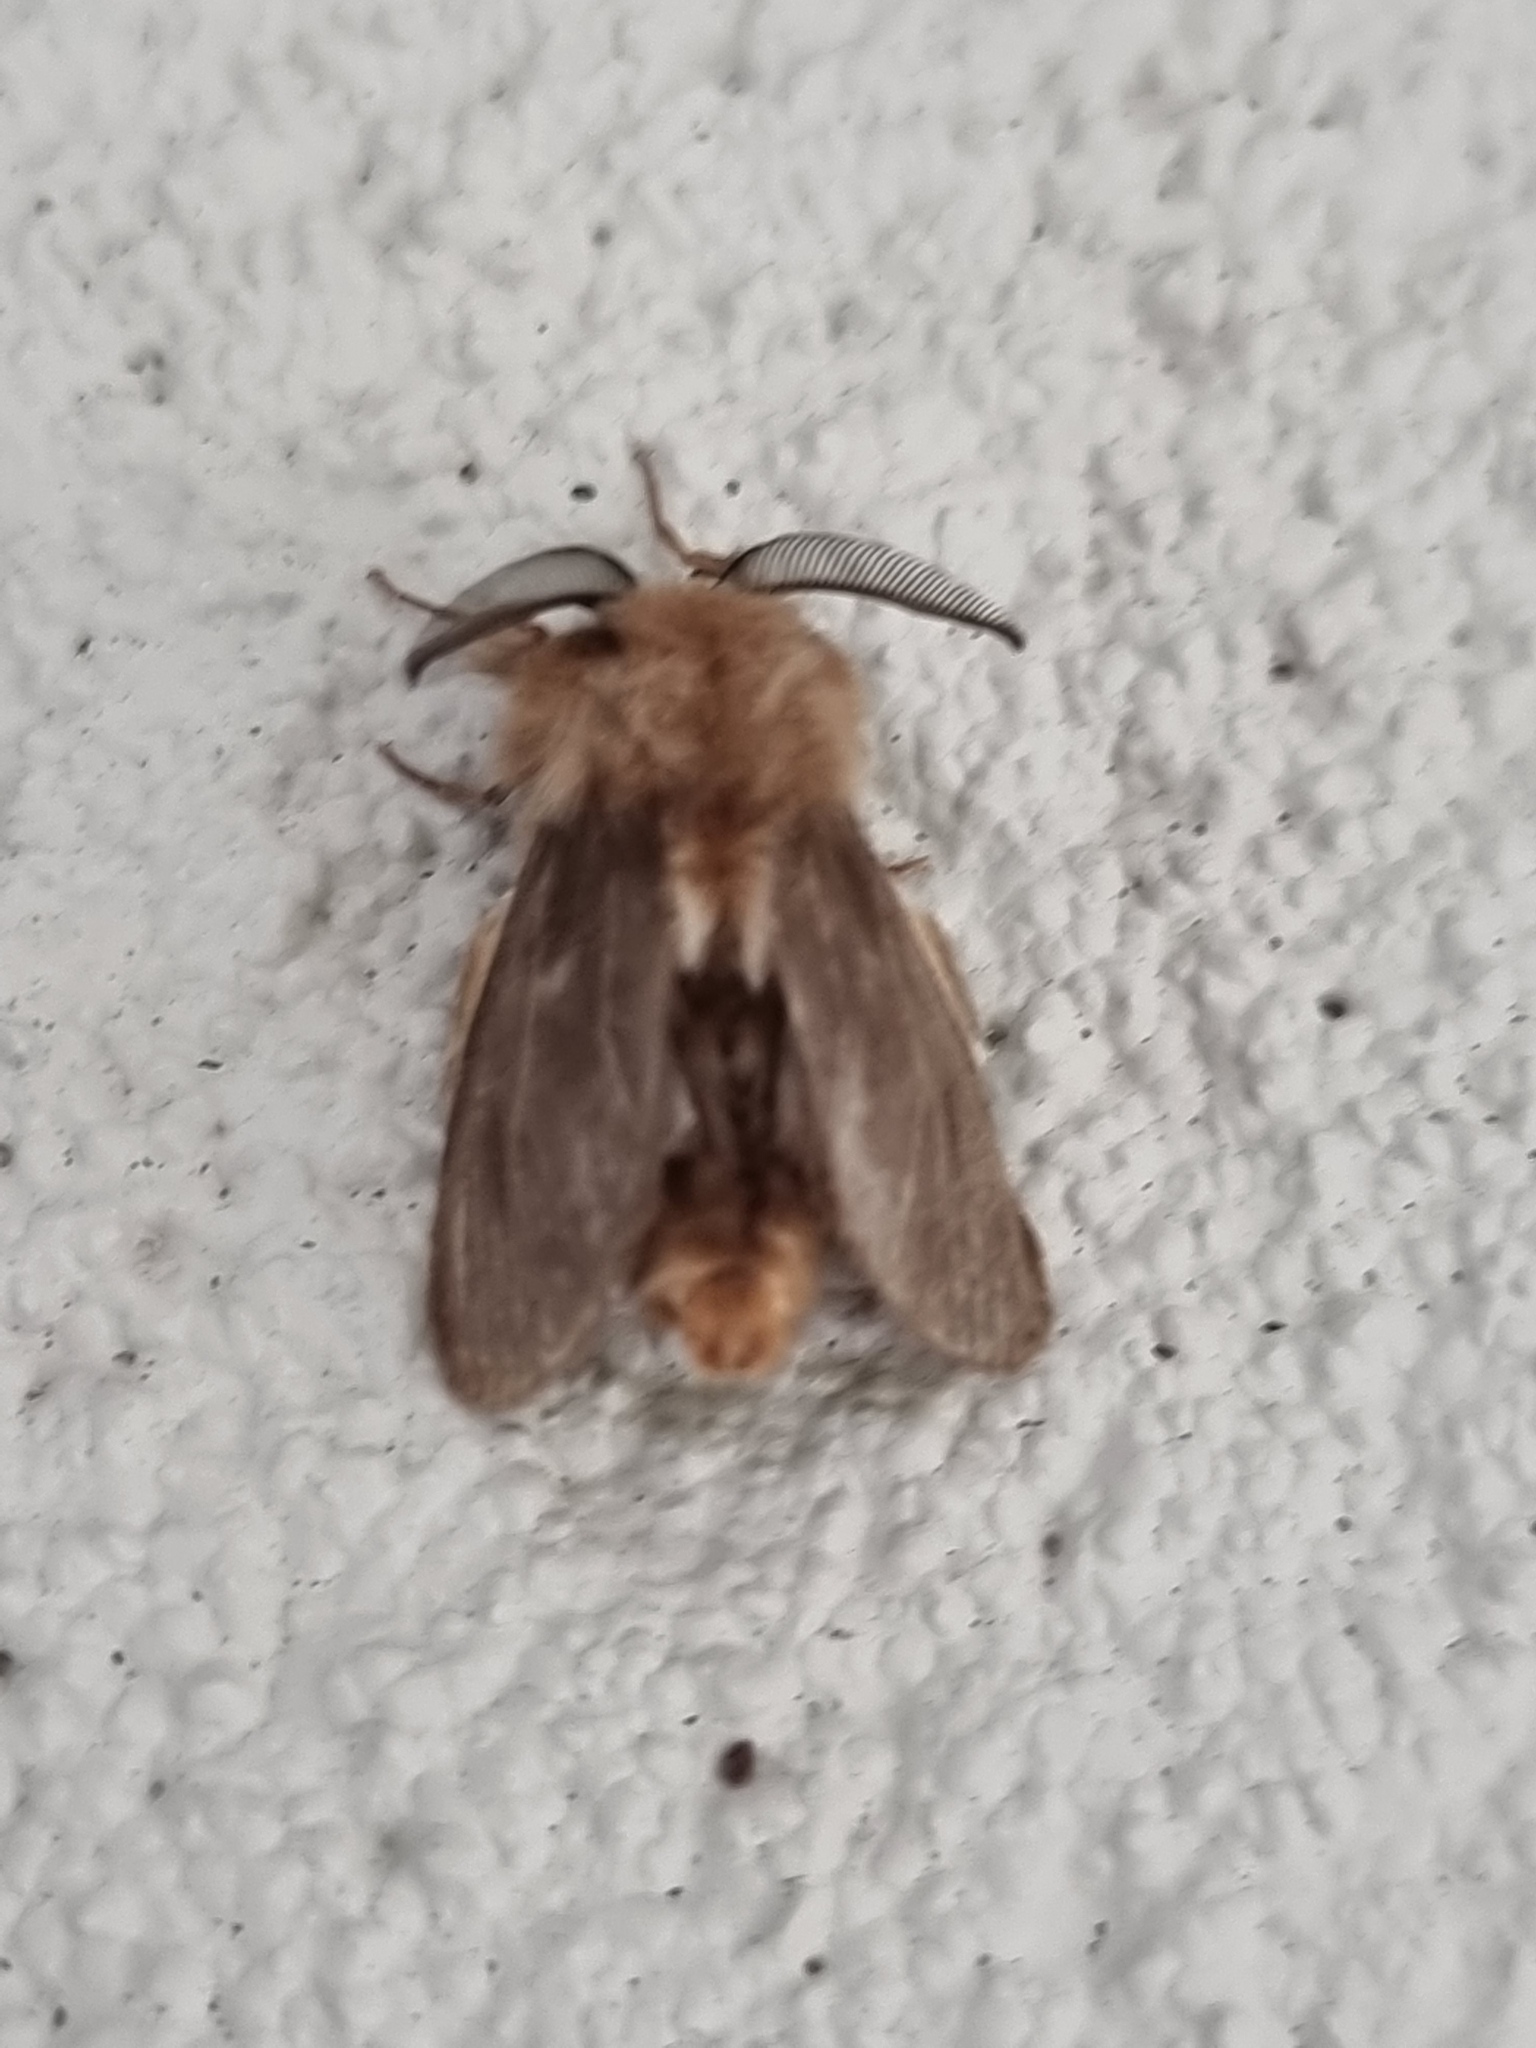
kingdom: Animalia
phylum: Arthropoda
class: Insecta
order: Lepidoptera
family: Psychidae
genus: Lomera
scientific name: Lomera lurida
